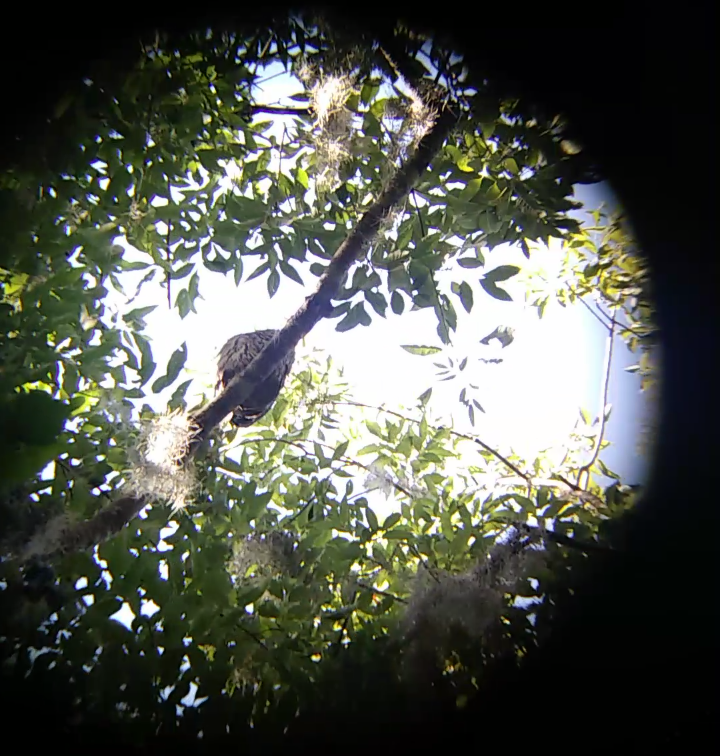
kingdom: Animalia
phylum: Chordata
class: Aves
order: Strigiformes
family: Strigidae
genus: Strix
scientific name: Strix varia
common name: Barred owl
